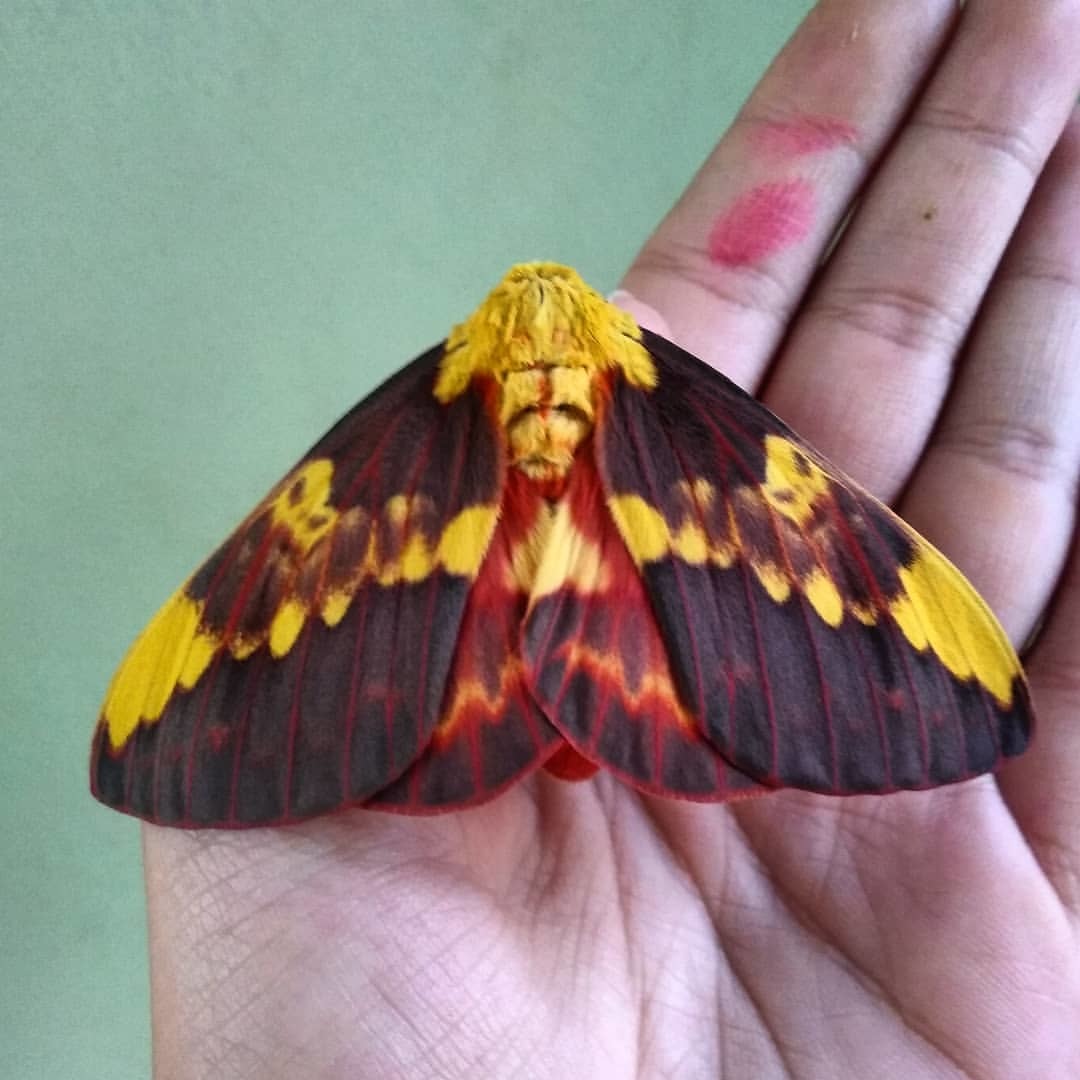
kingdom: Animalia
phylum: Arthropoda
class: Insecta
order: Lepidoptera
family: Saturniidae
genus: Citheronia
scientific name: Citheronia laocoon
